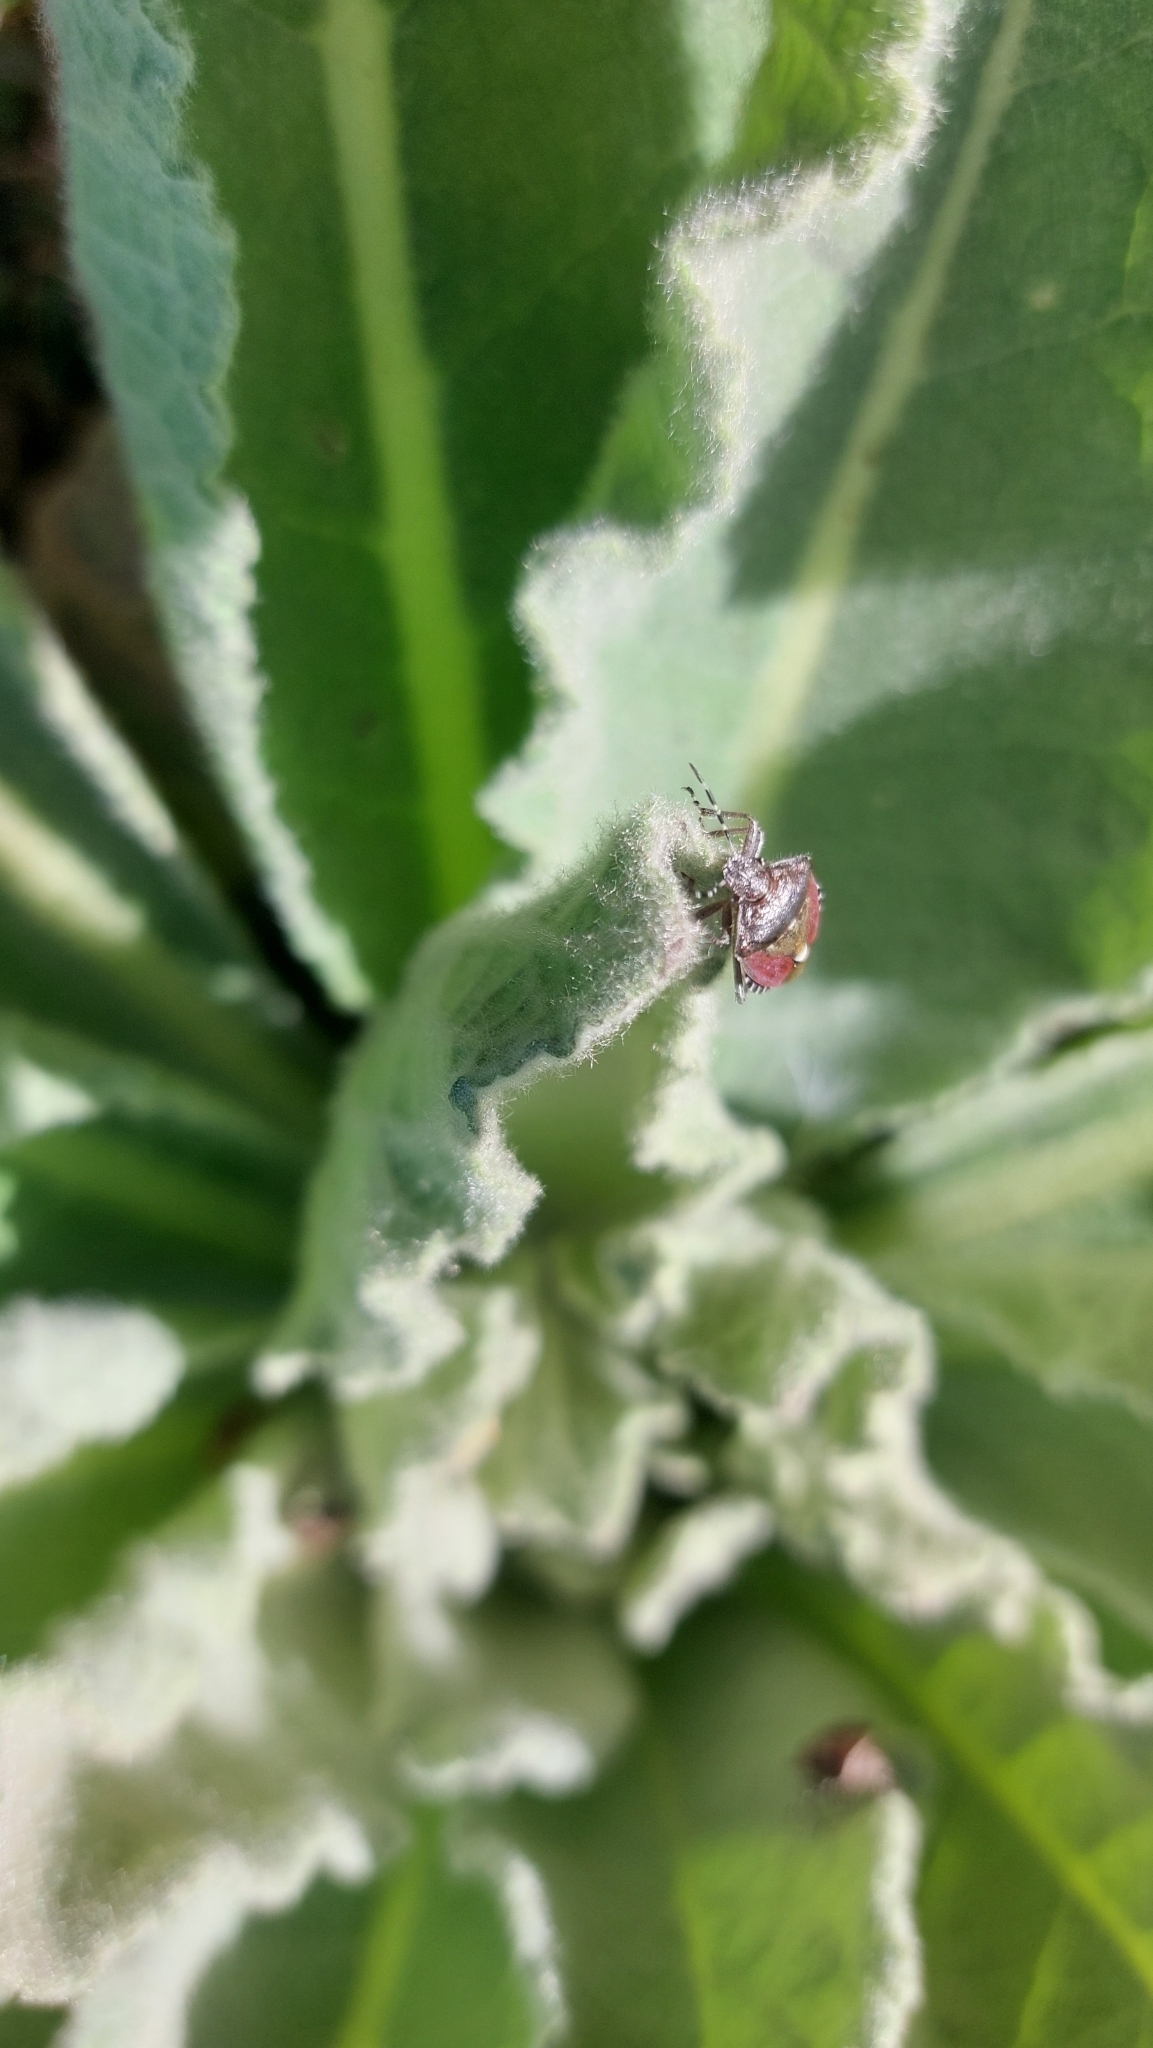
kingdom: Animalia
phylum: Arthropoda
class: Insecta
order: Hemiptera
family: Pentatomidae
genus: Dolycoris
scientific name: Dolycoris baccarum
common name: Sloe bug
